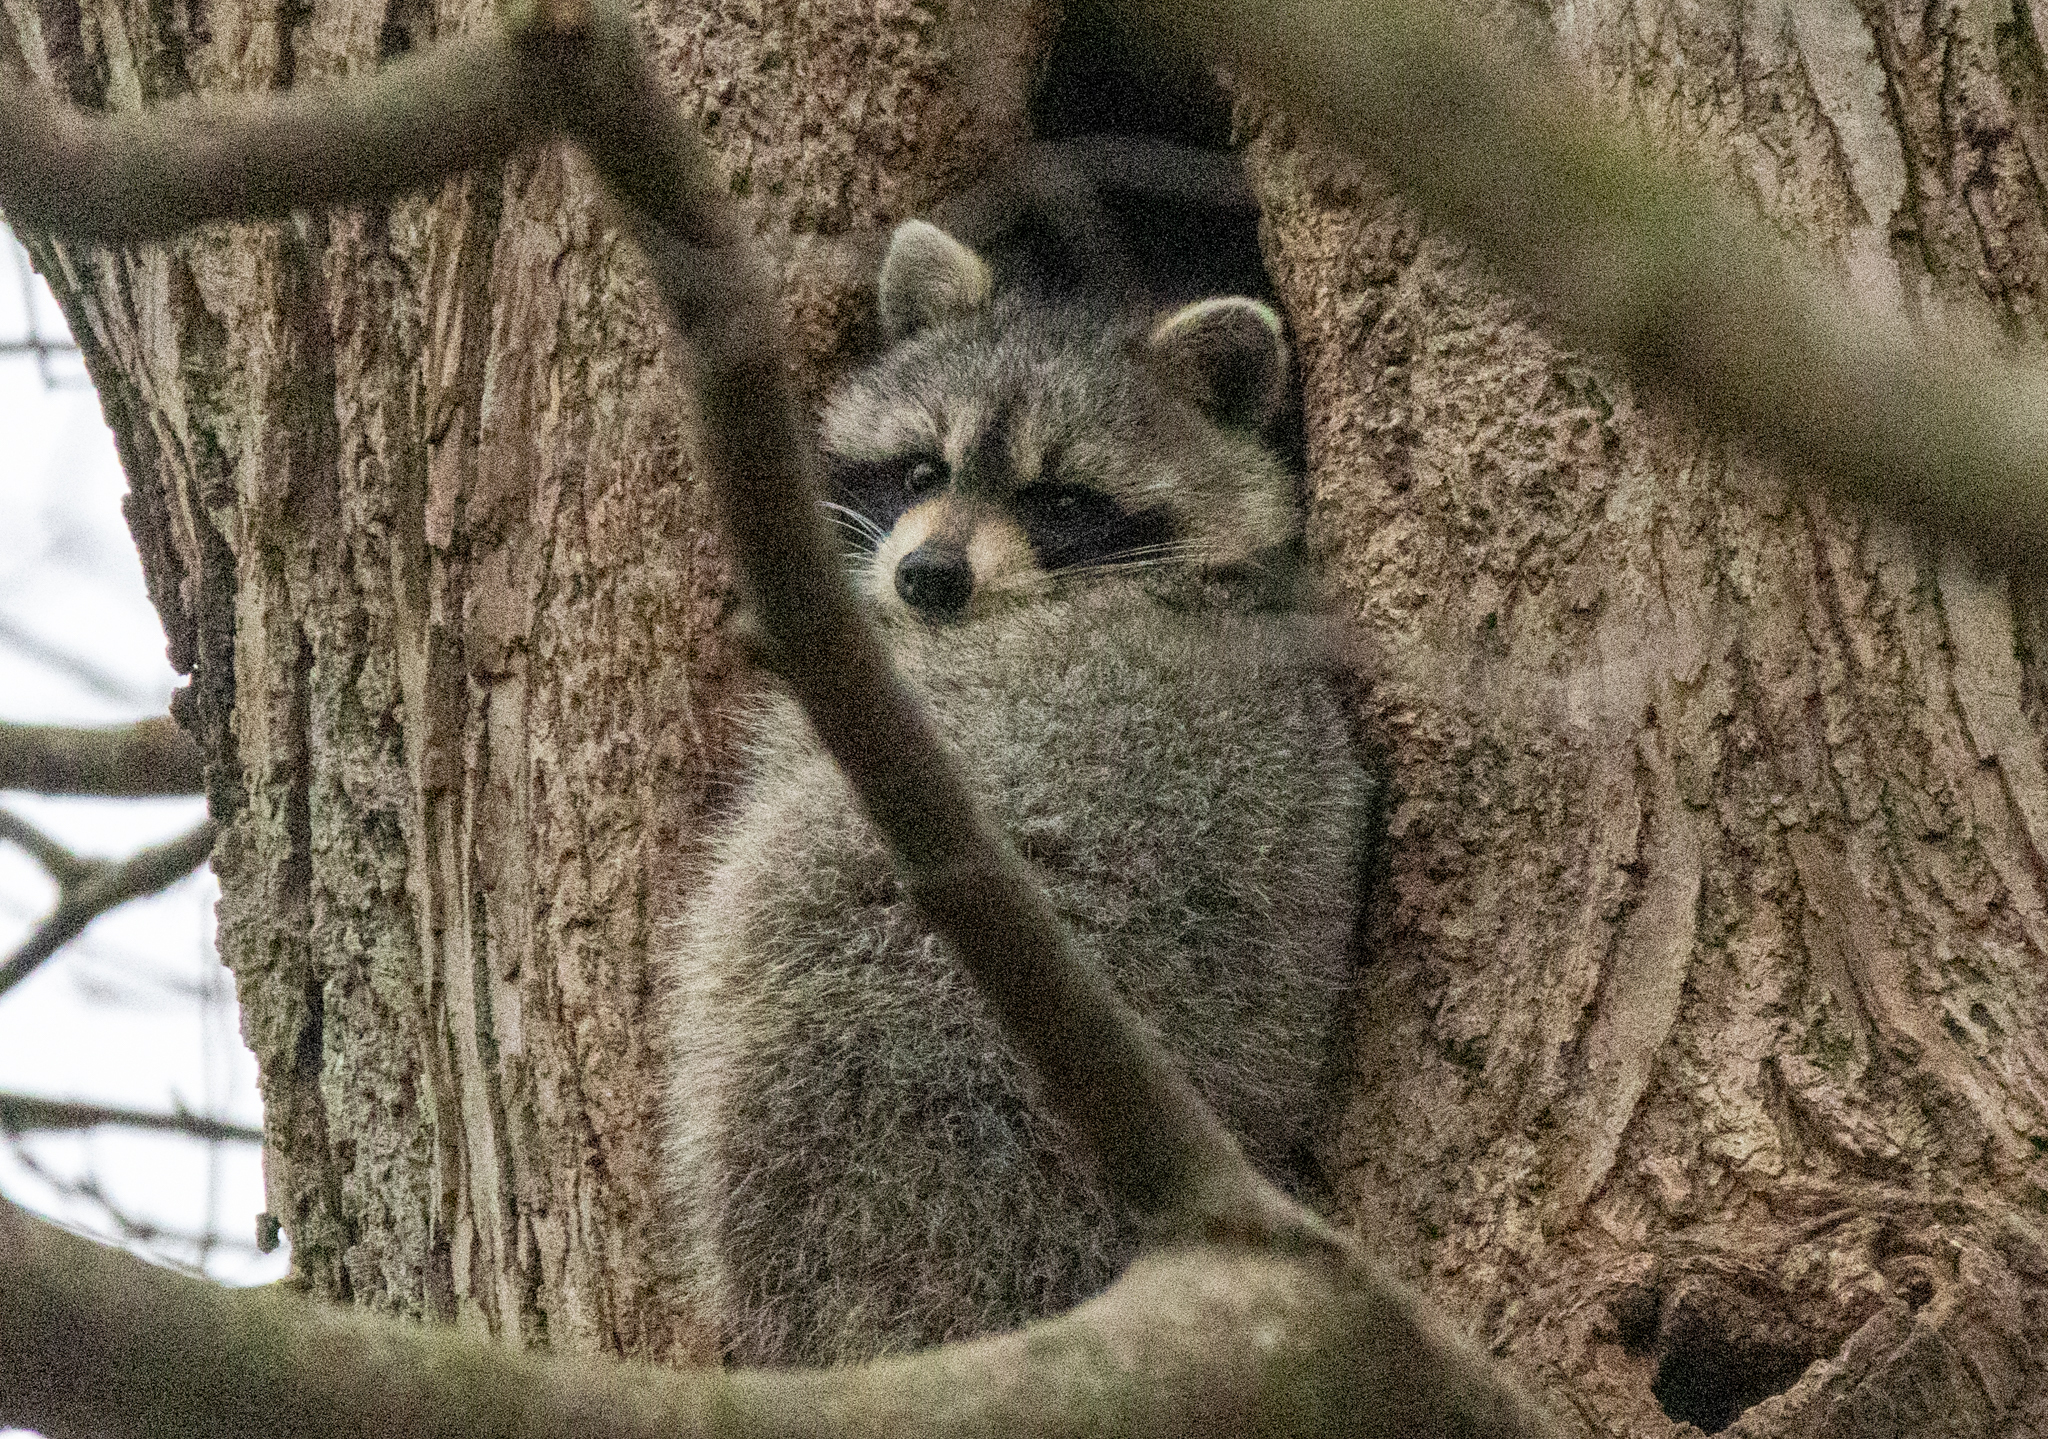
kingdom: Animalia
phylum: Chordata
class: Mammalia
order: Carnivora
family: Procyonidae
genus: Procyon
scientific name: Procyon lotor
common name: Raccoon
